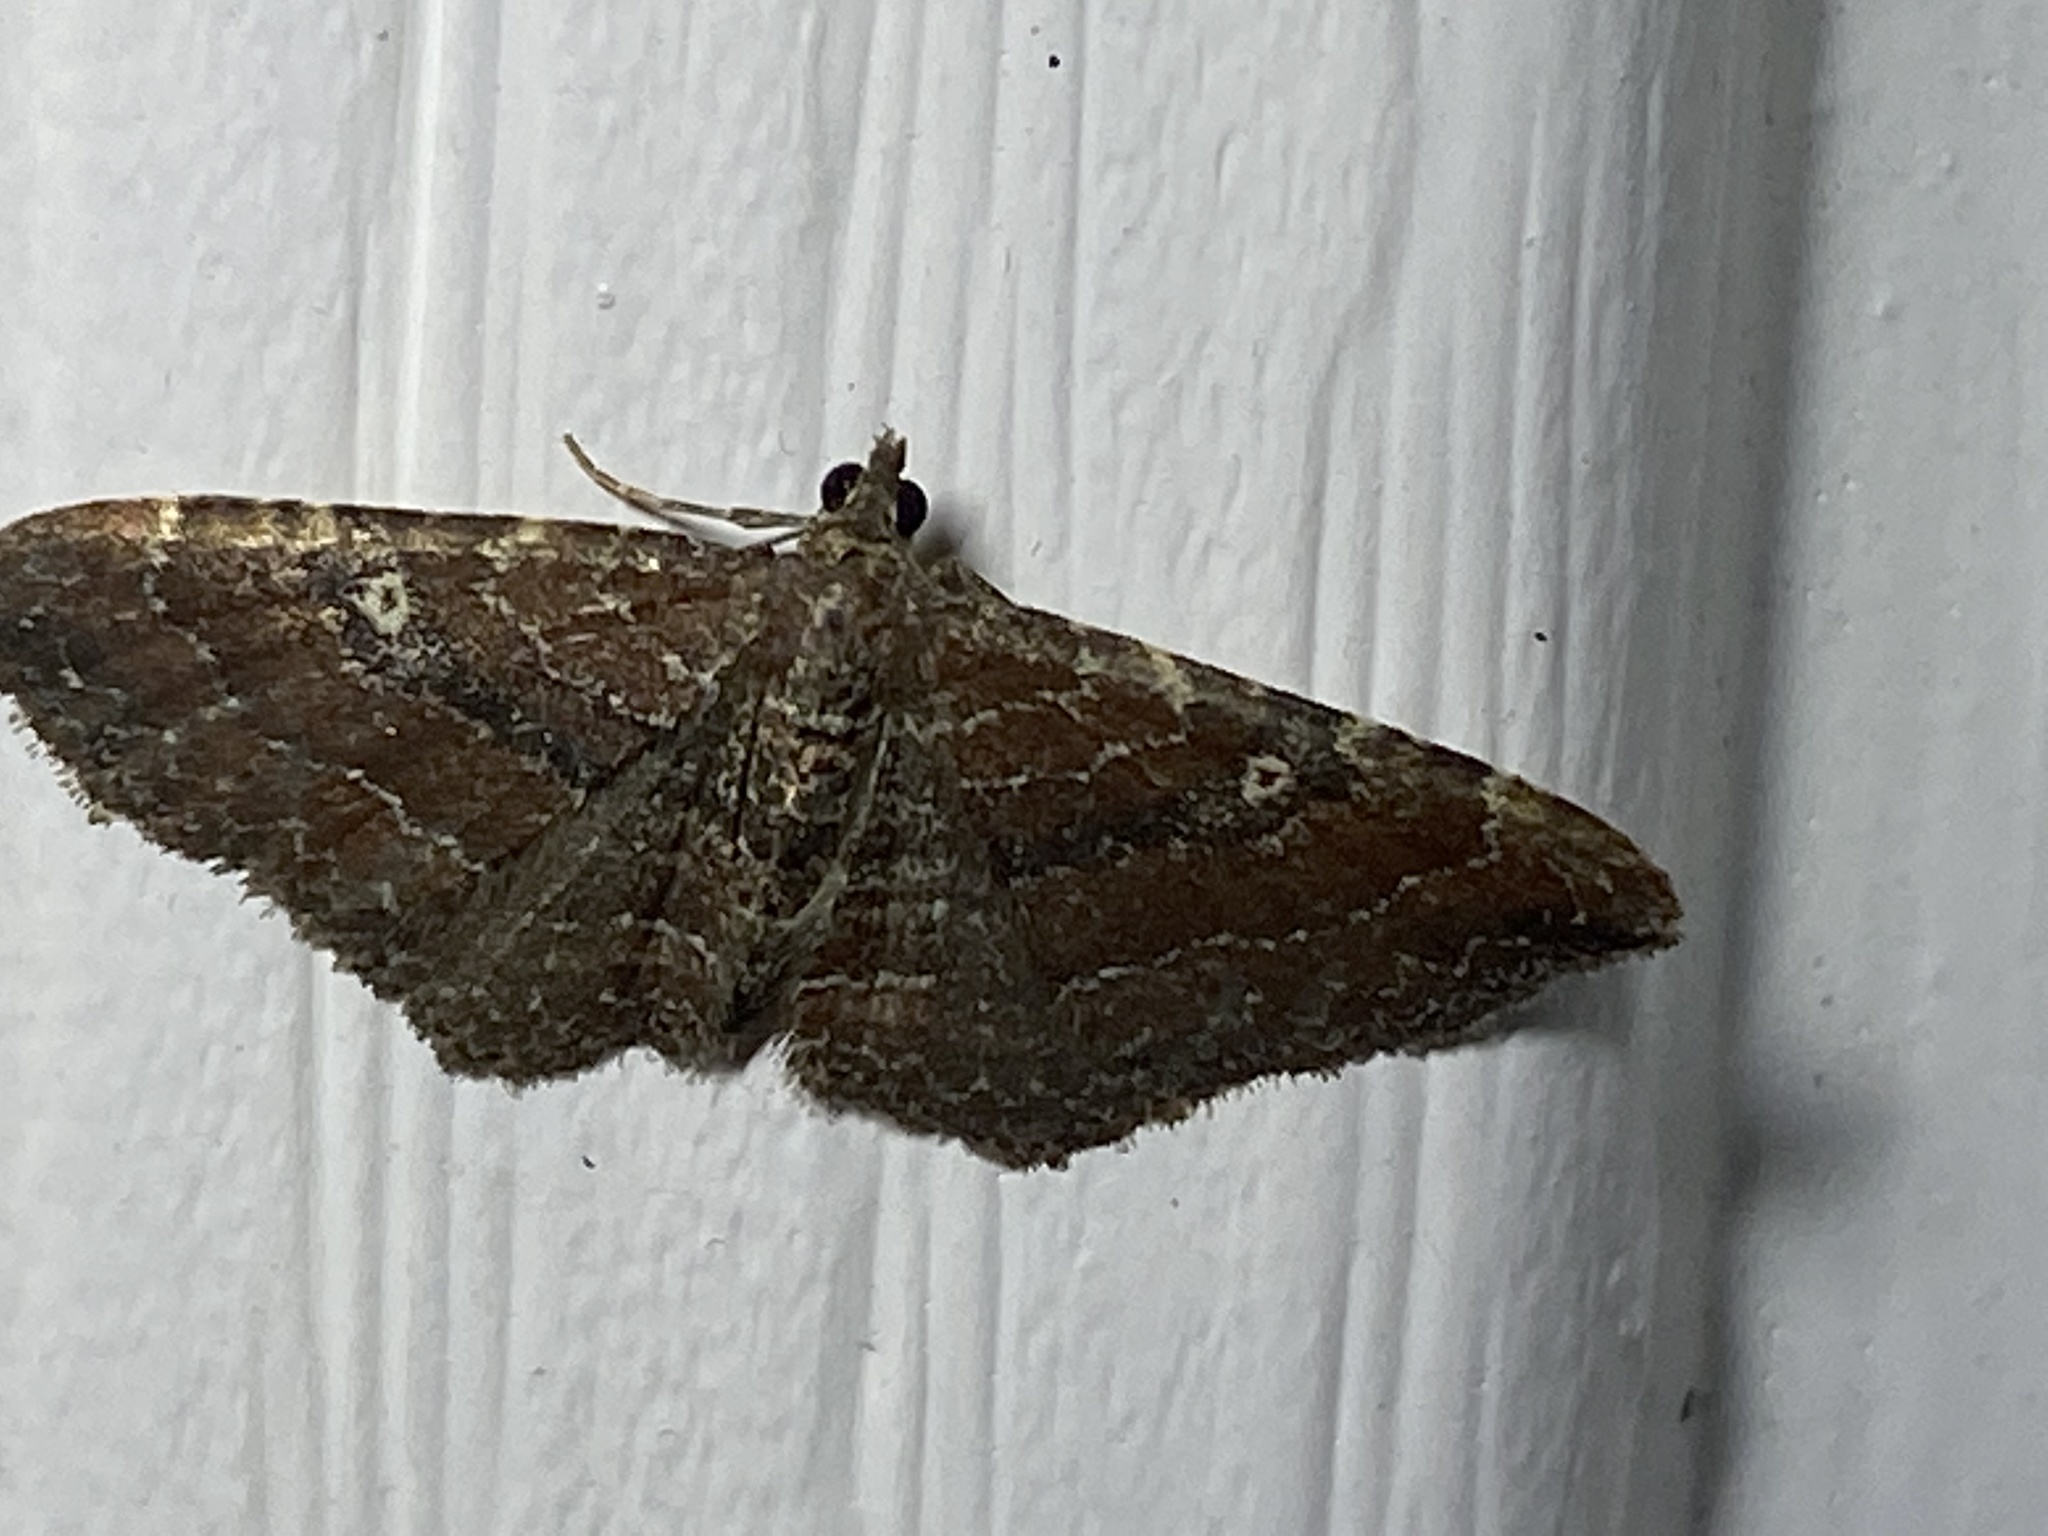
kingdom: Animalia
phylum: Arthropoda
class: Insecta
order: Lepidoptera
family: Geometridae
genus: Orthonama
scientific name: Orthonama obstipata
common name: The gem
